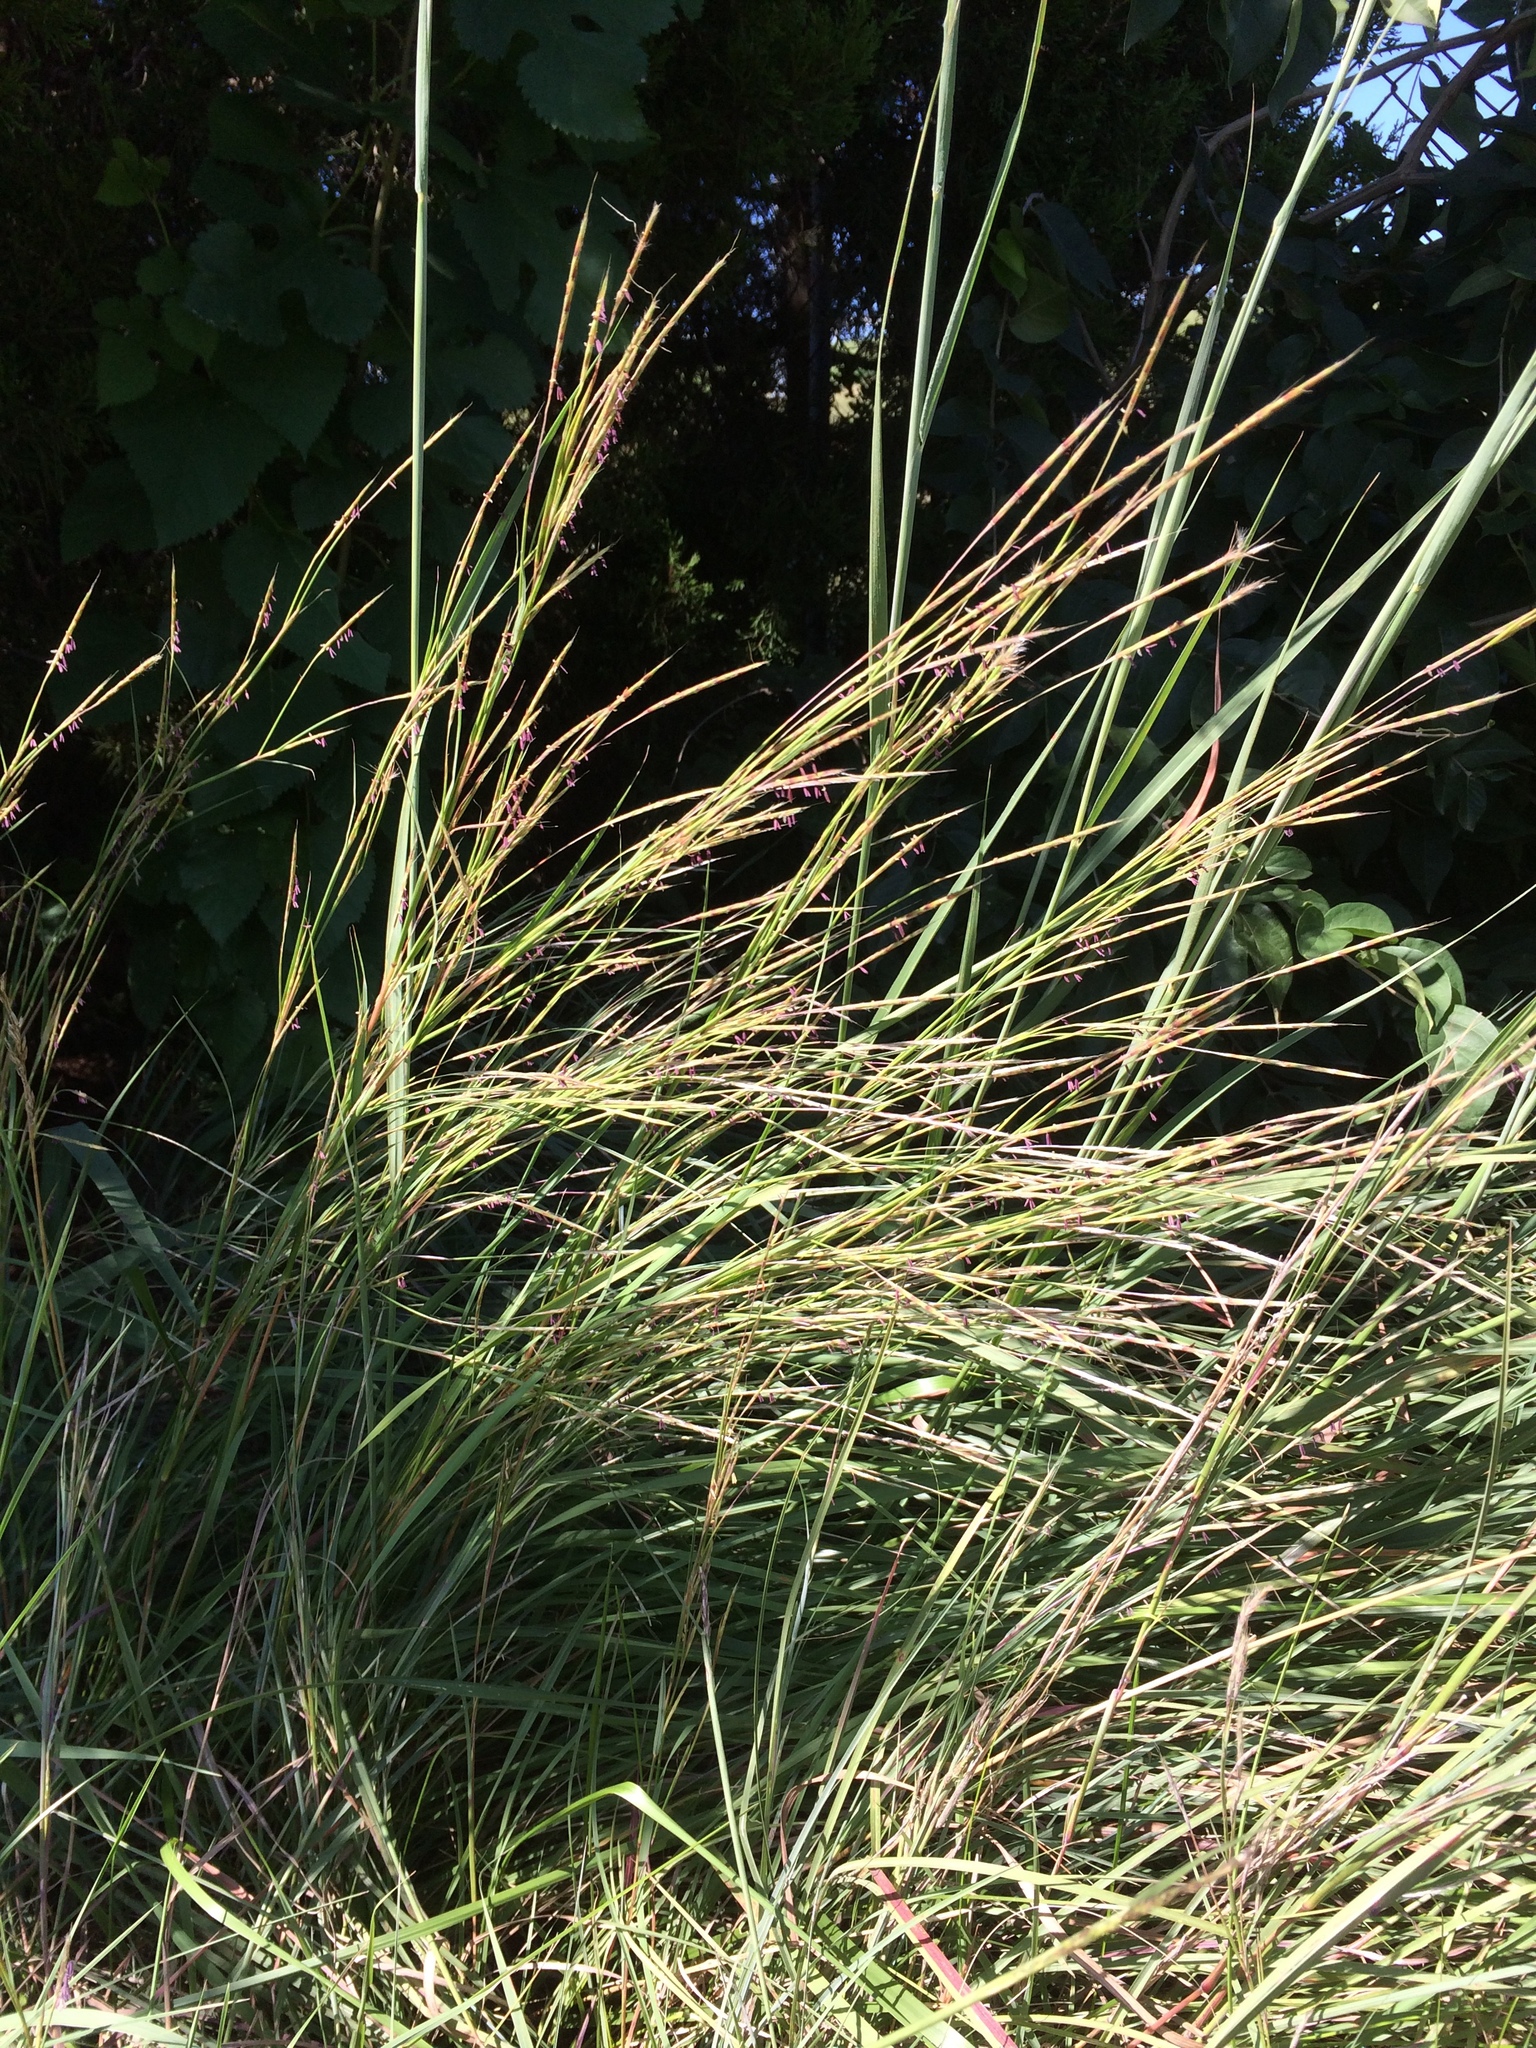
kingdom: Plantae
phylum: Tracheophyta
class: Liliopsida
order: Poales
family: Poaceae
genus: Schizachyrium
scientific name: Schizachyrium scoparium
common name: Little bluestem
